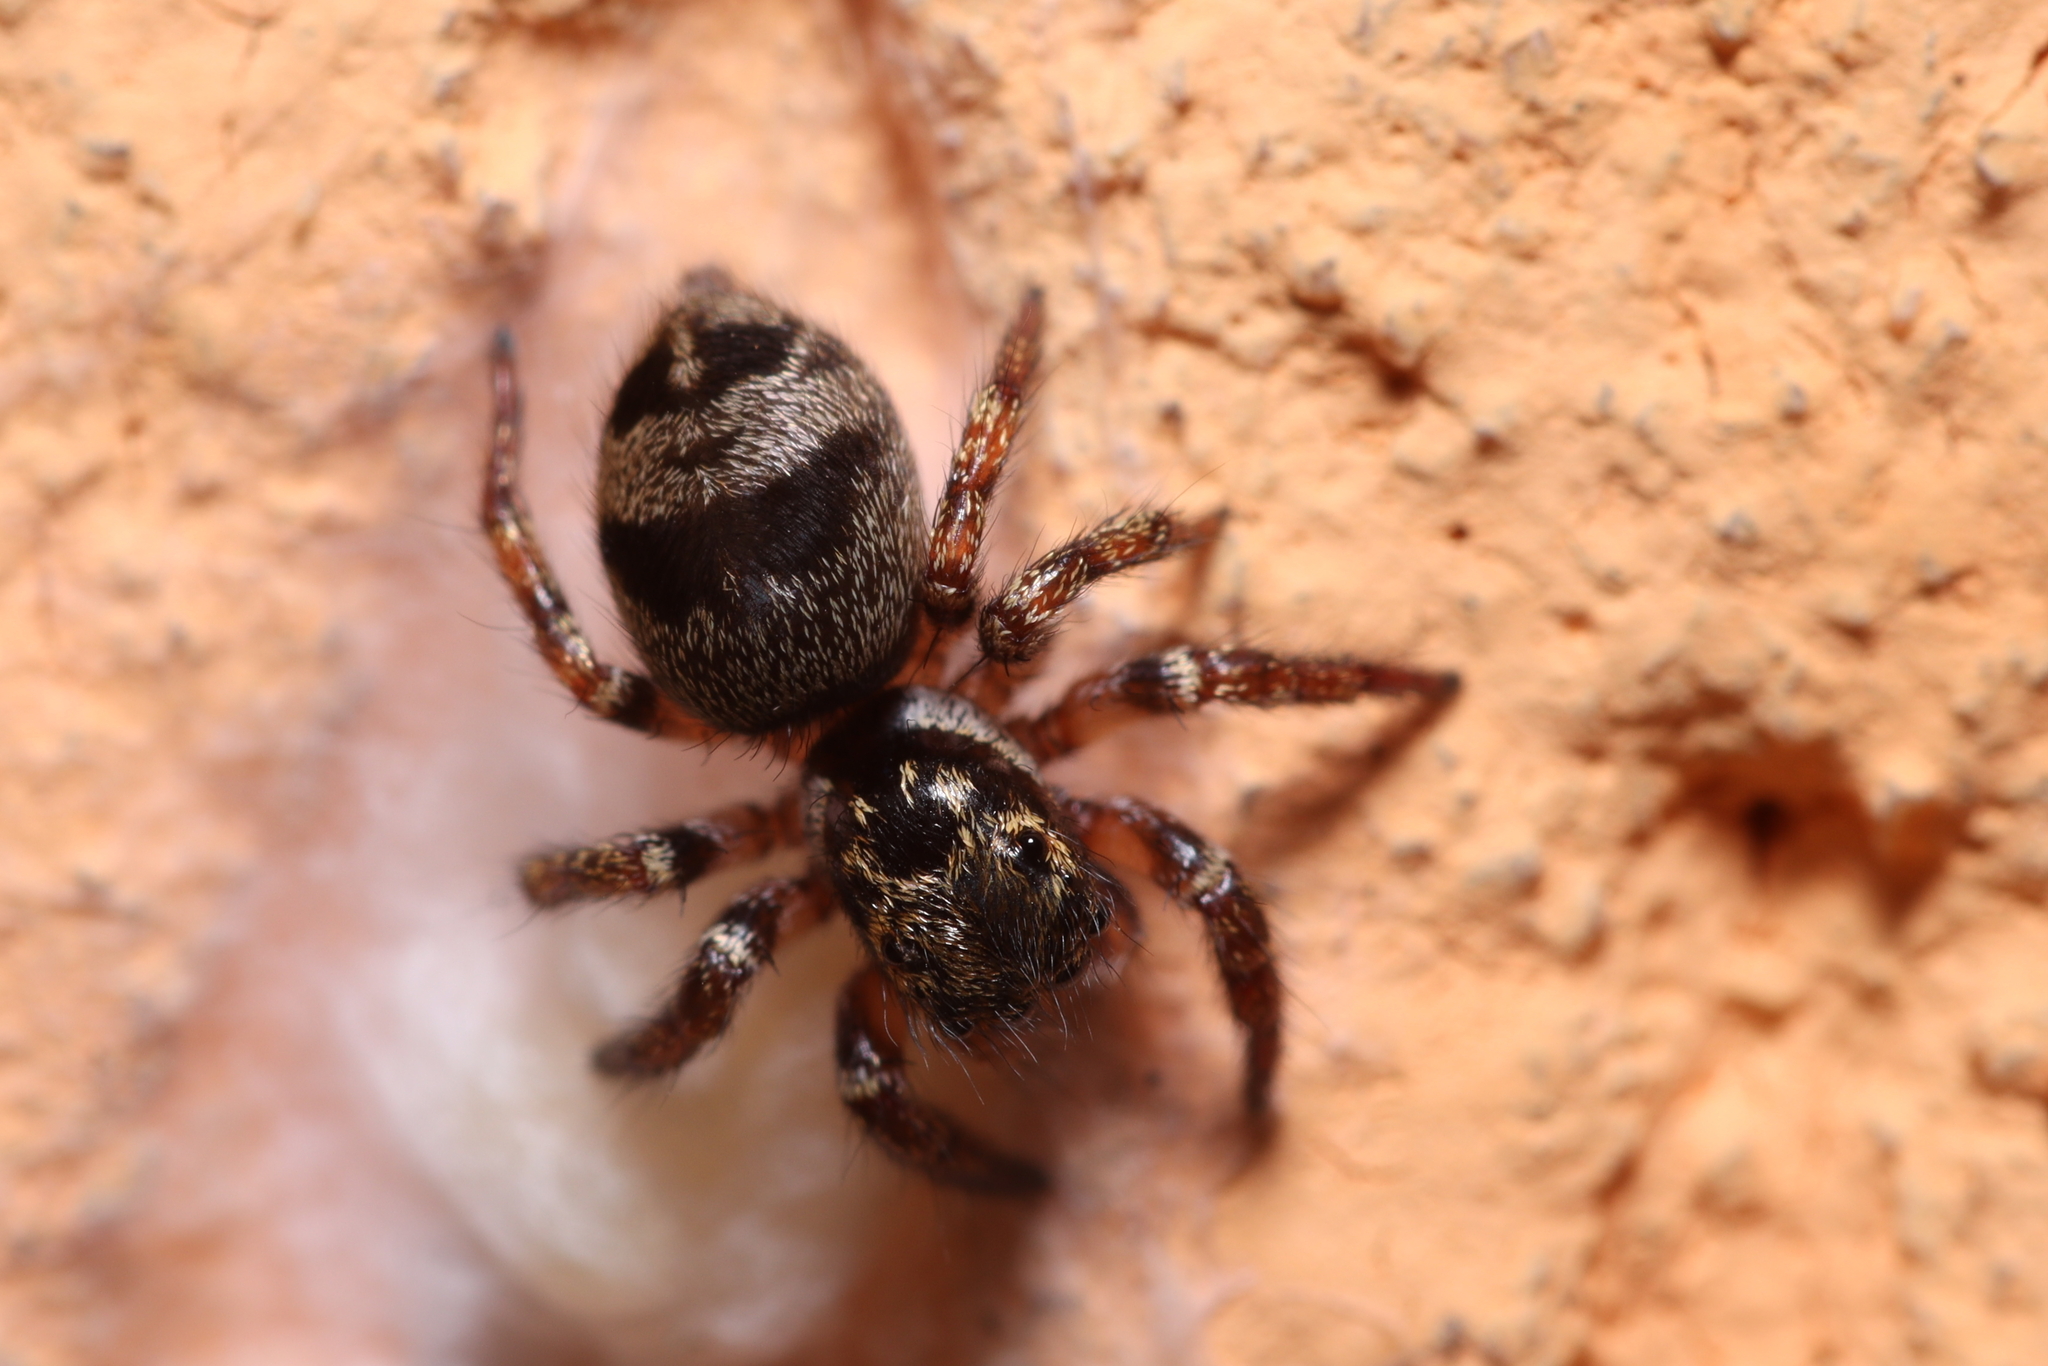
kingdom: Animalia
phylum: Arthropoda
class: Arachnida
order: Araneae
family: Salticidae
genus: Corythalia
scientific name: Corythalia conferta
